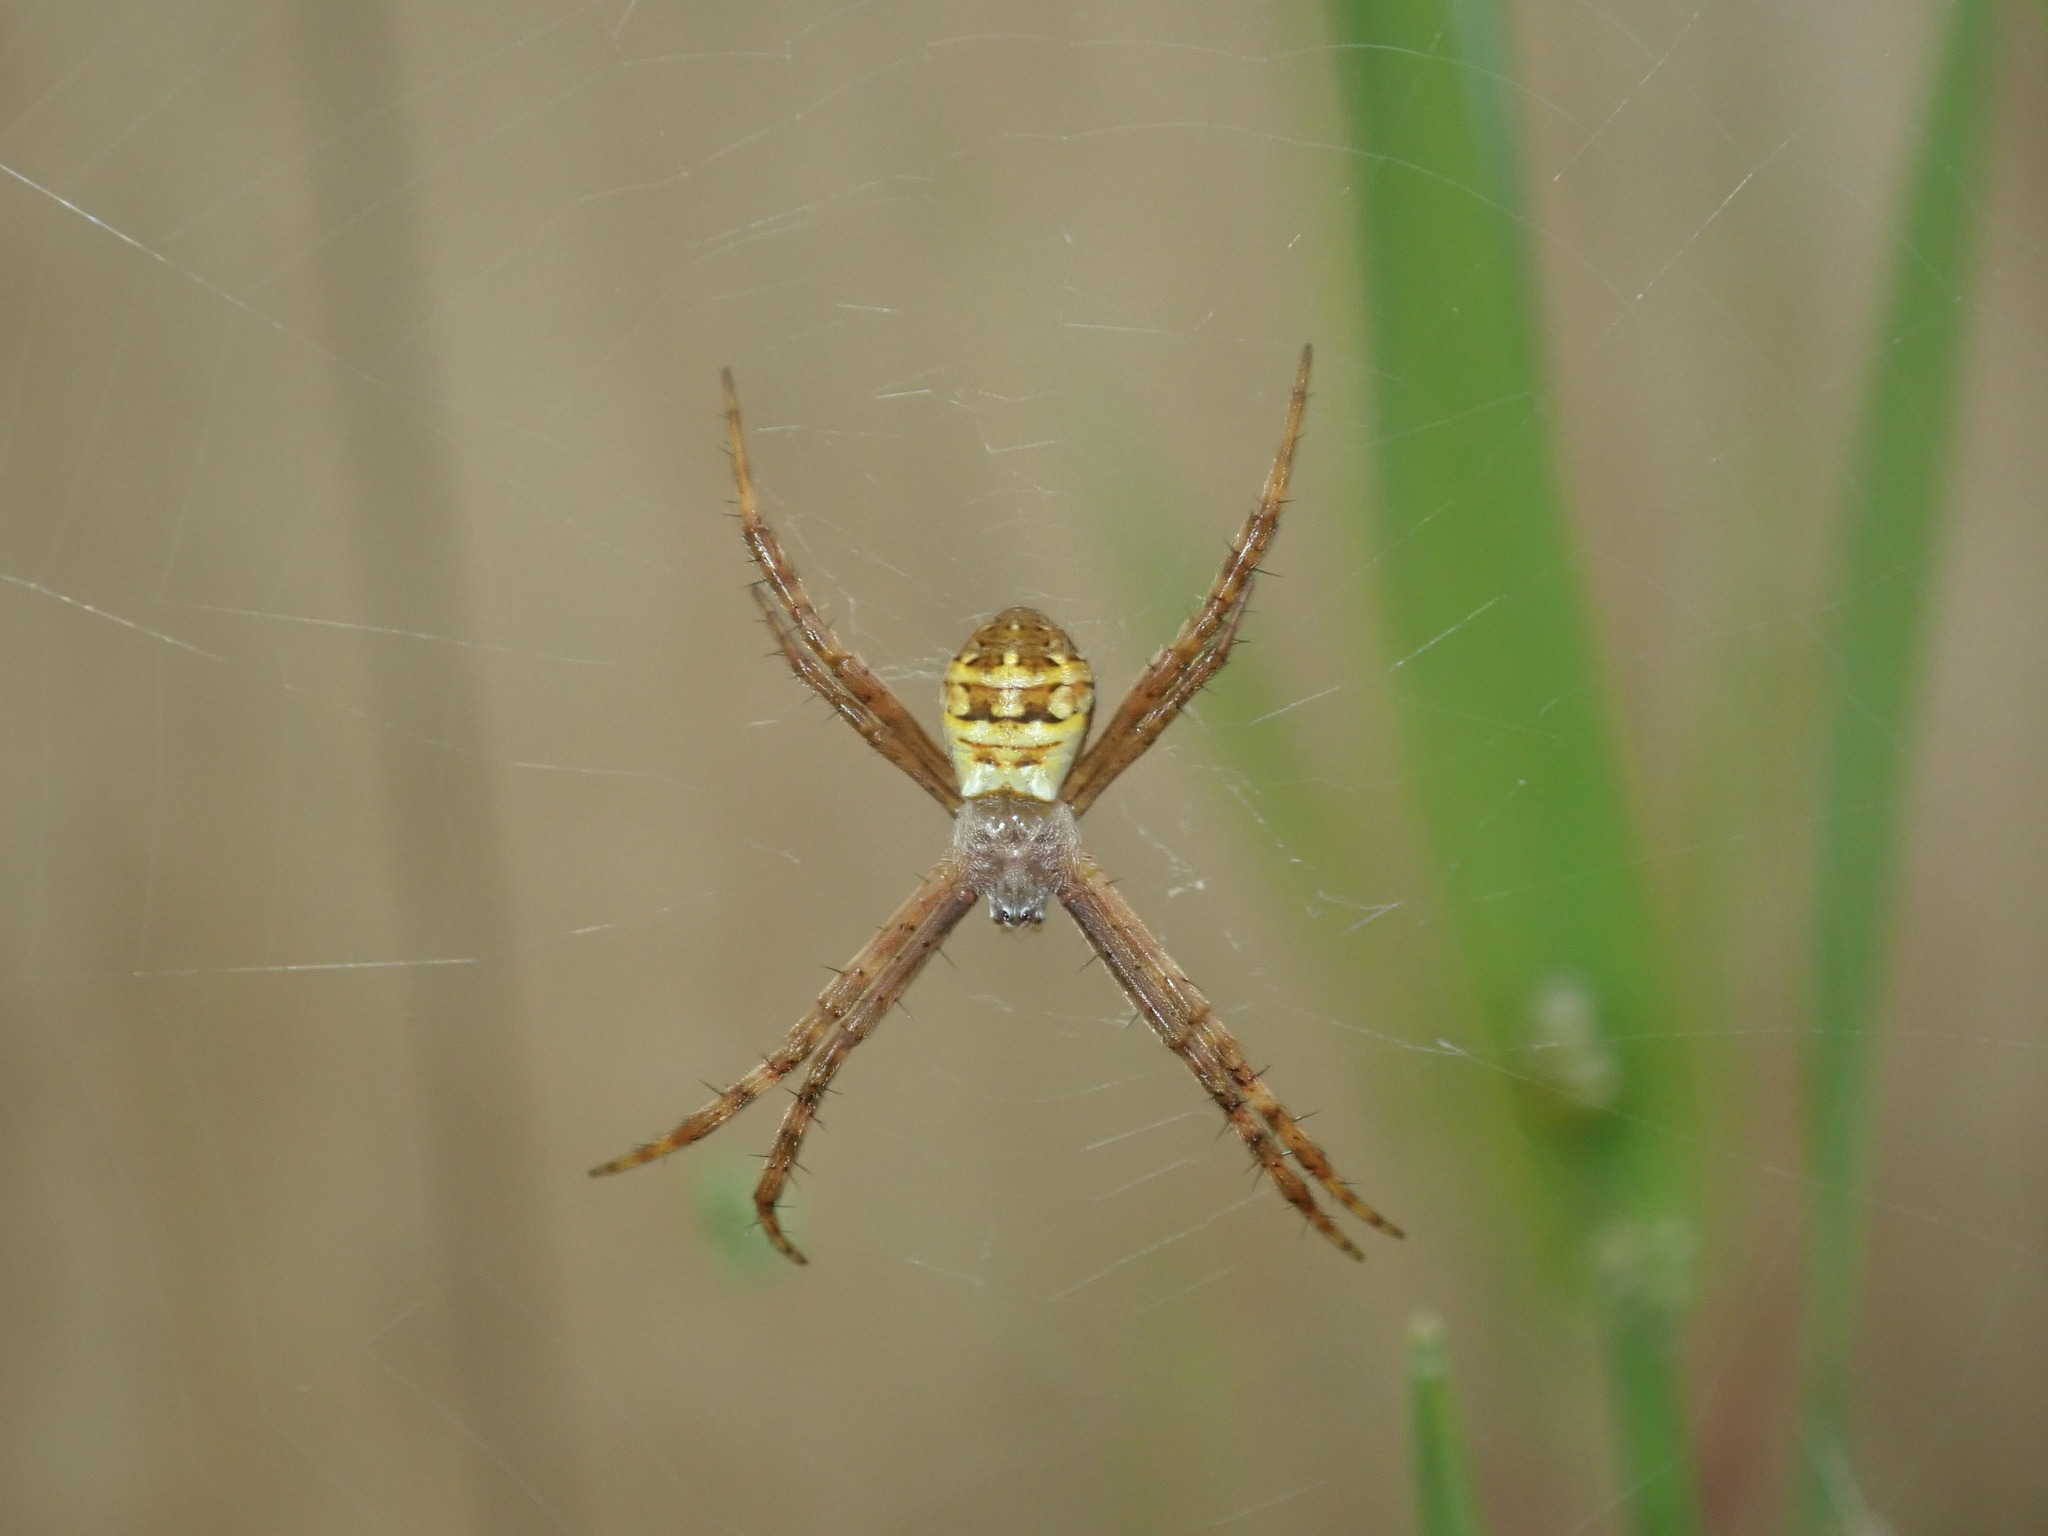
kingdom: Animalia
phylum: Arthropoda
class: Arachnida
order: Araneae
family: Araneidae
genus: Argiope
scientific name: Argiope keyserlingi
